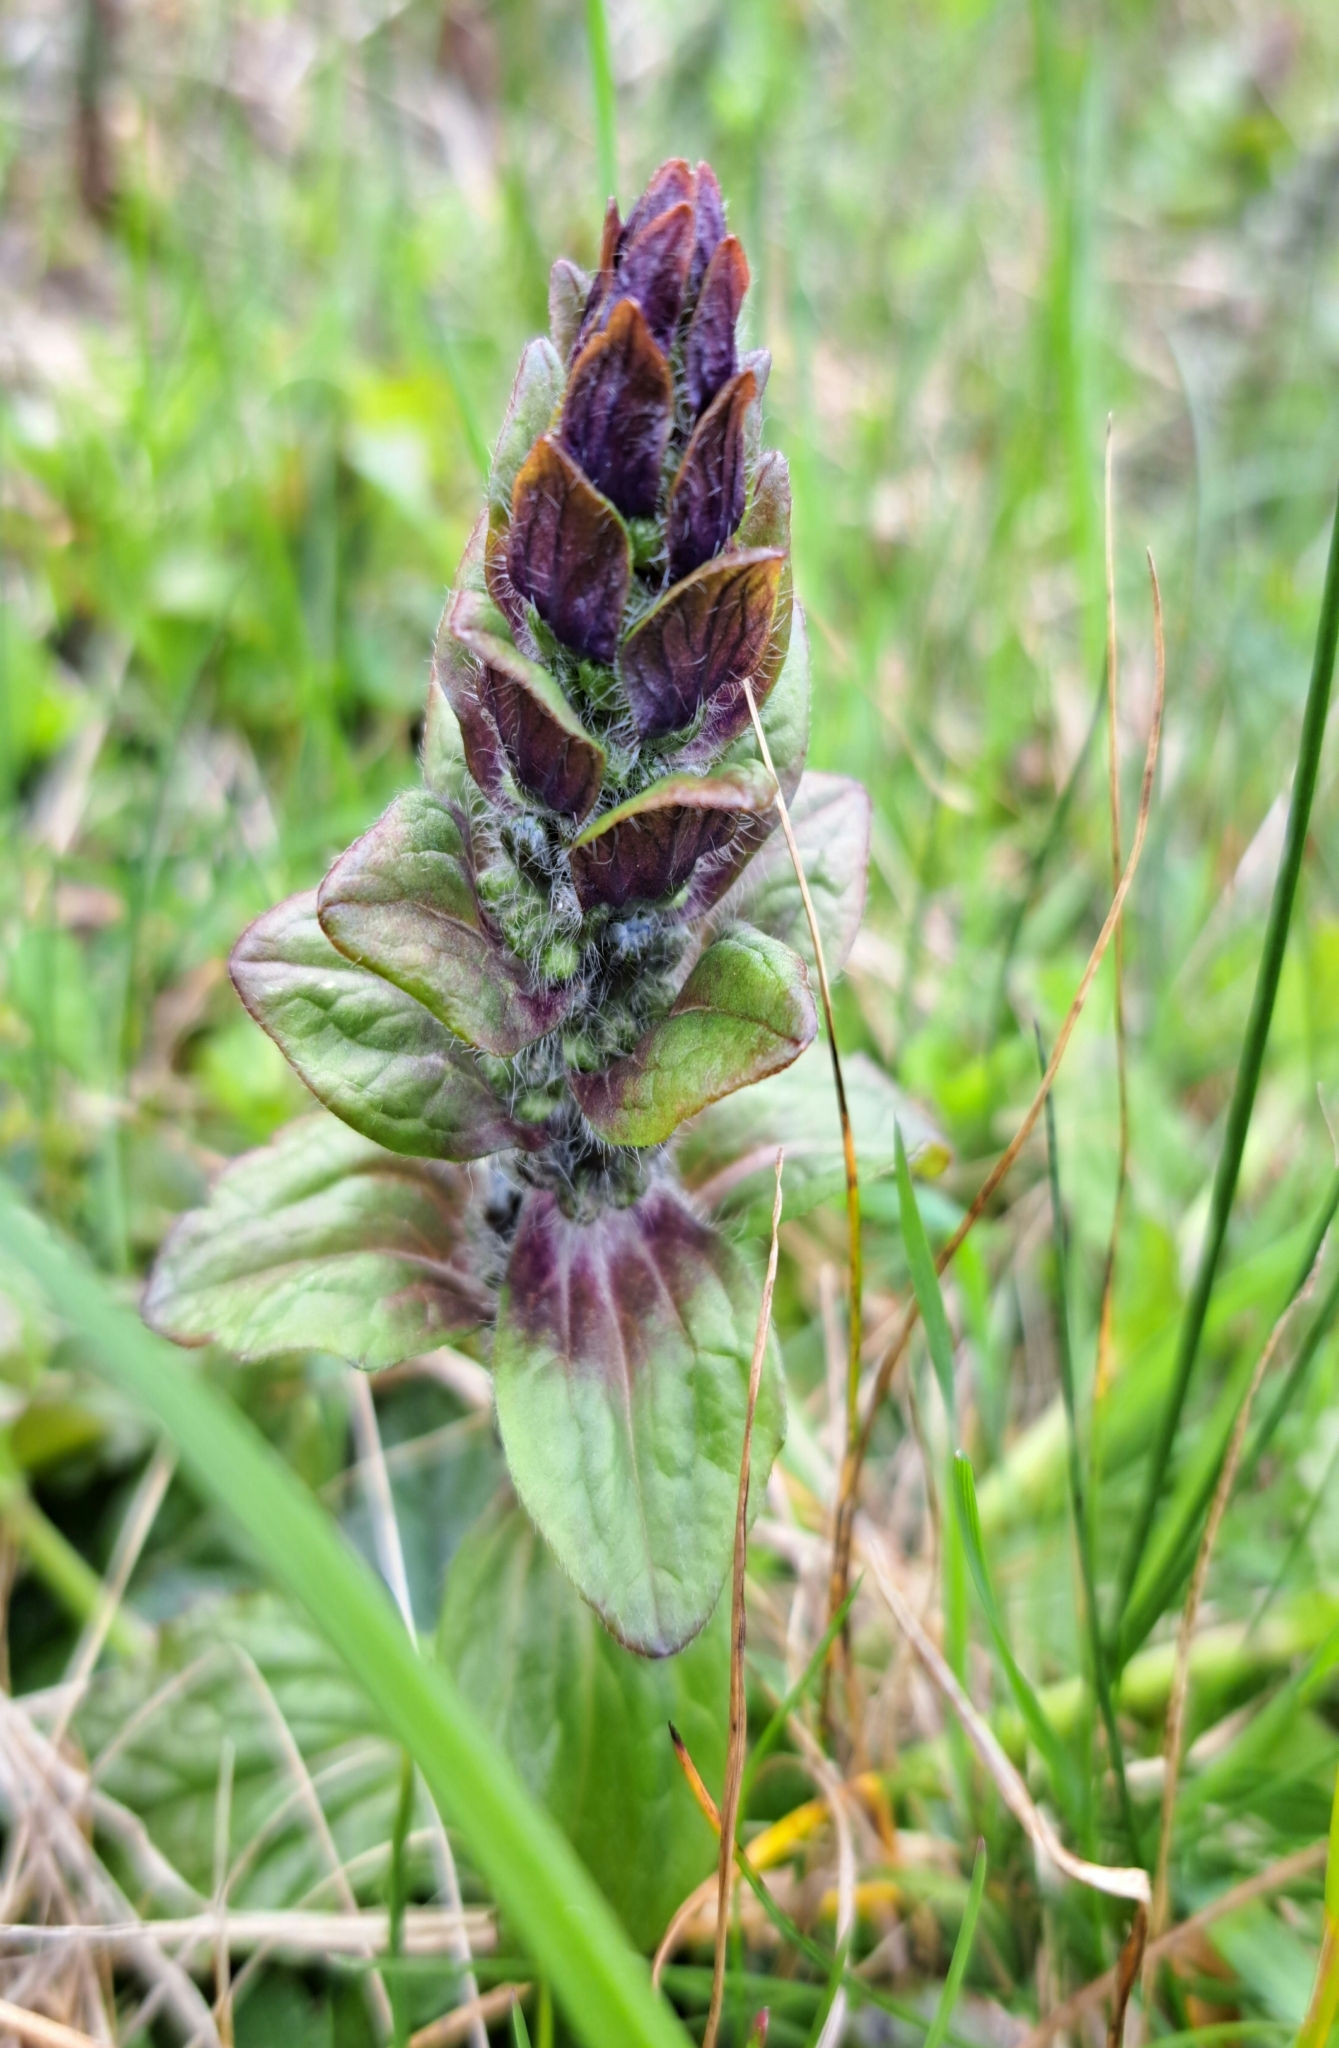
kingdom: Plantae
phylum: Tracheophyta
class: Magnoliopsida
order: Lamiales
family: Lamiaceae
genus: Ajuga
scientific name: Ajuga reptans
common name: Bugle
